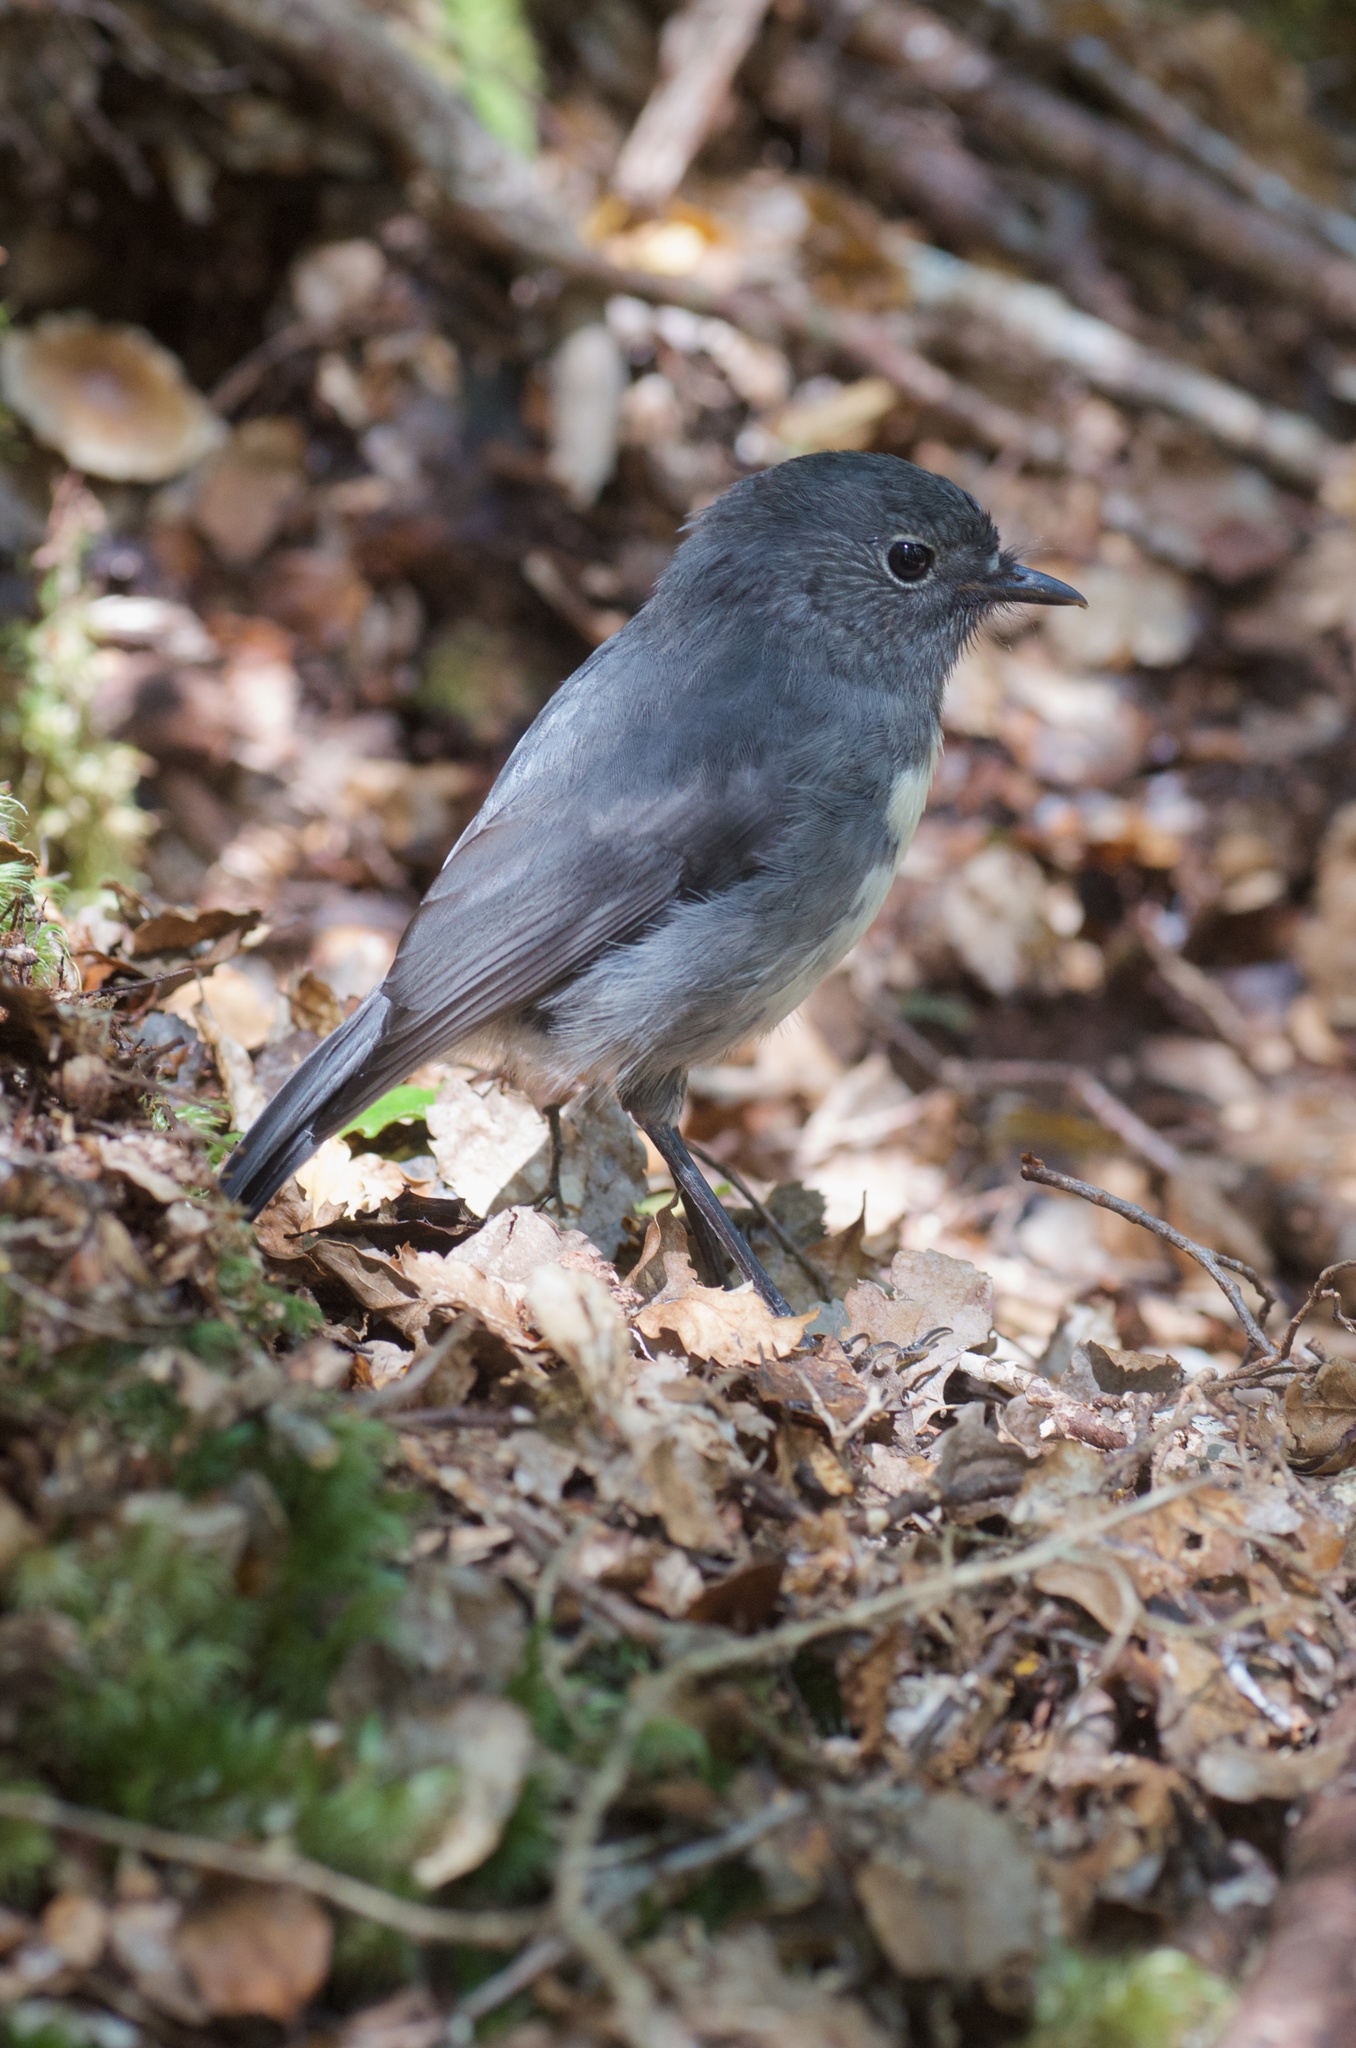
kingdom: Animalia
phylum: Chordata
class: Aves
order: Passeriformes
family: Petroicidae
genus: Petroica
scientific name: Petroica australis
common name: New zealand robin
